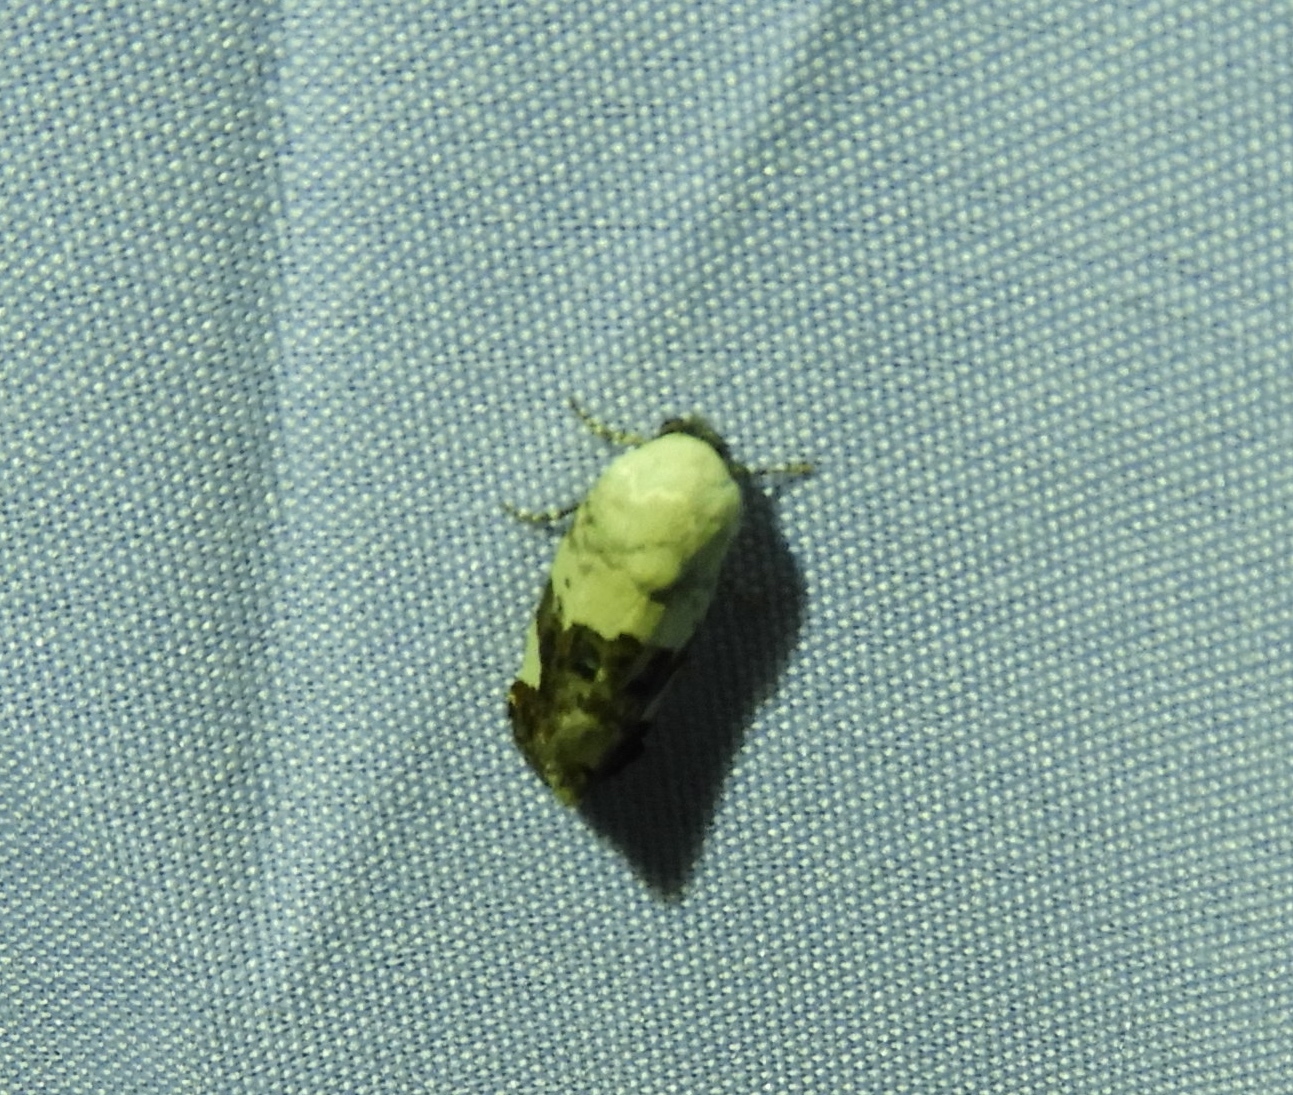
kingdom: Animalia
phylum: Arthropoda
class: Insecta
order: Lepidoptera
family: Noctuidae
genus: Acontia
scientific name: Acontia
